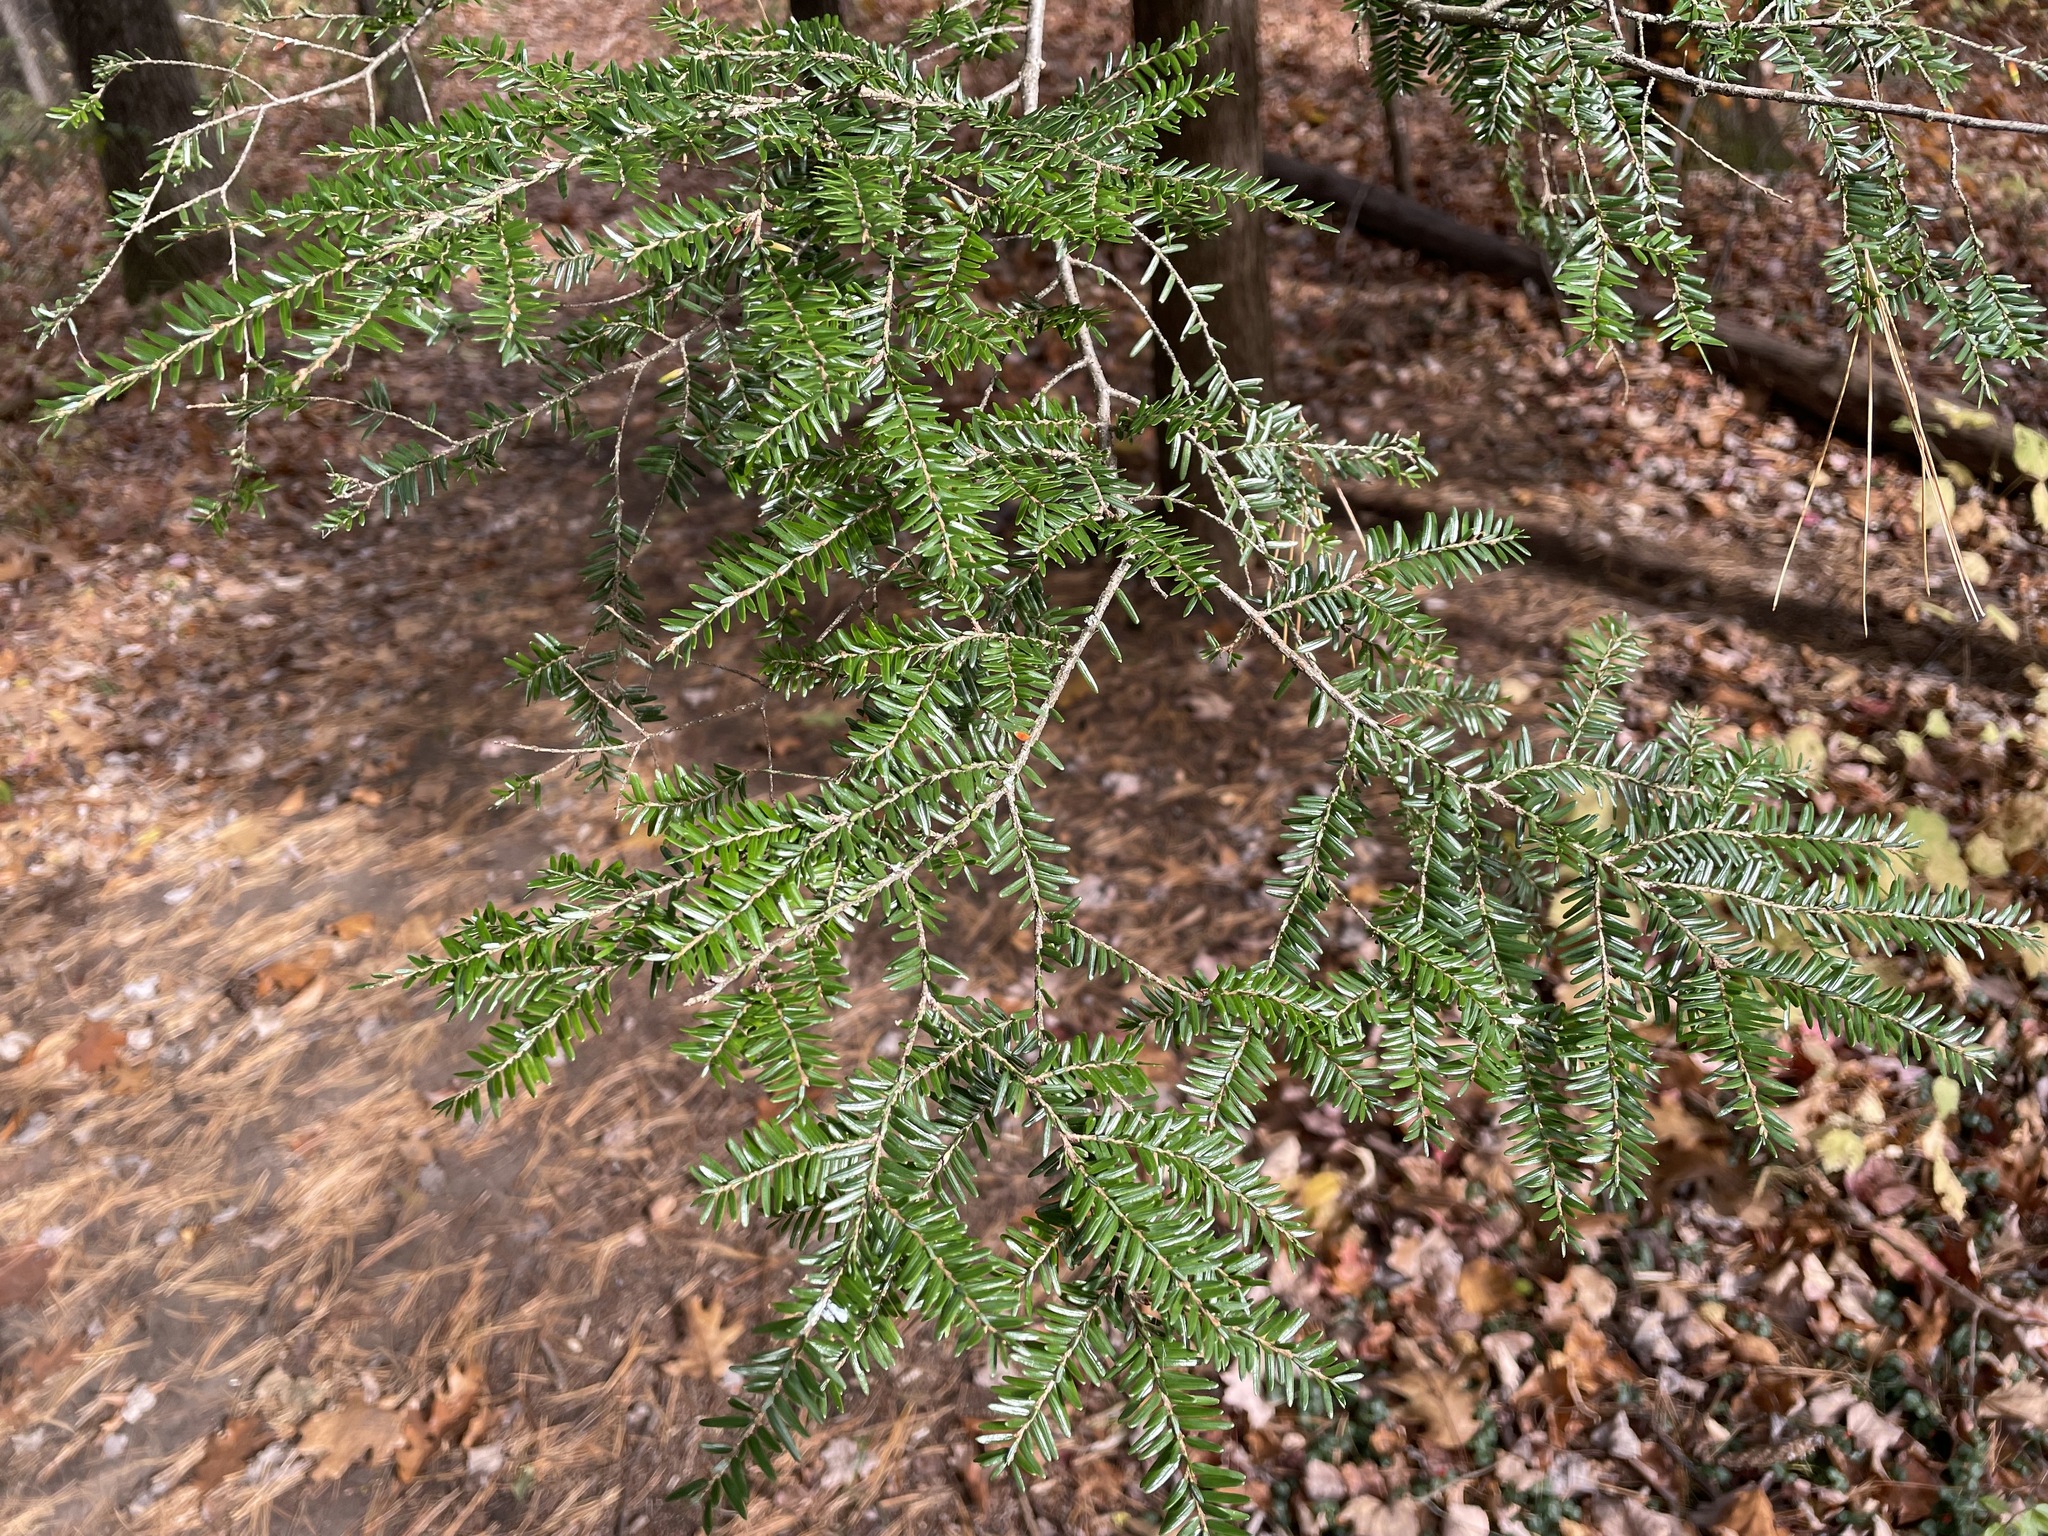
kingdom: Plantae
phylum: Tracheophyta
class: Pinopsida
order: Pinales
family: Pinaceae
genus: Tsuga
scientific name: Tsuga canadensis
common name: Eastern hemlock
